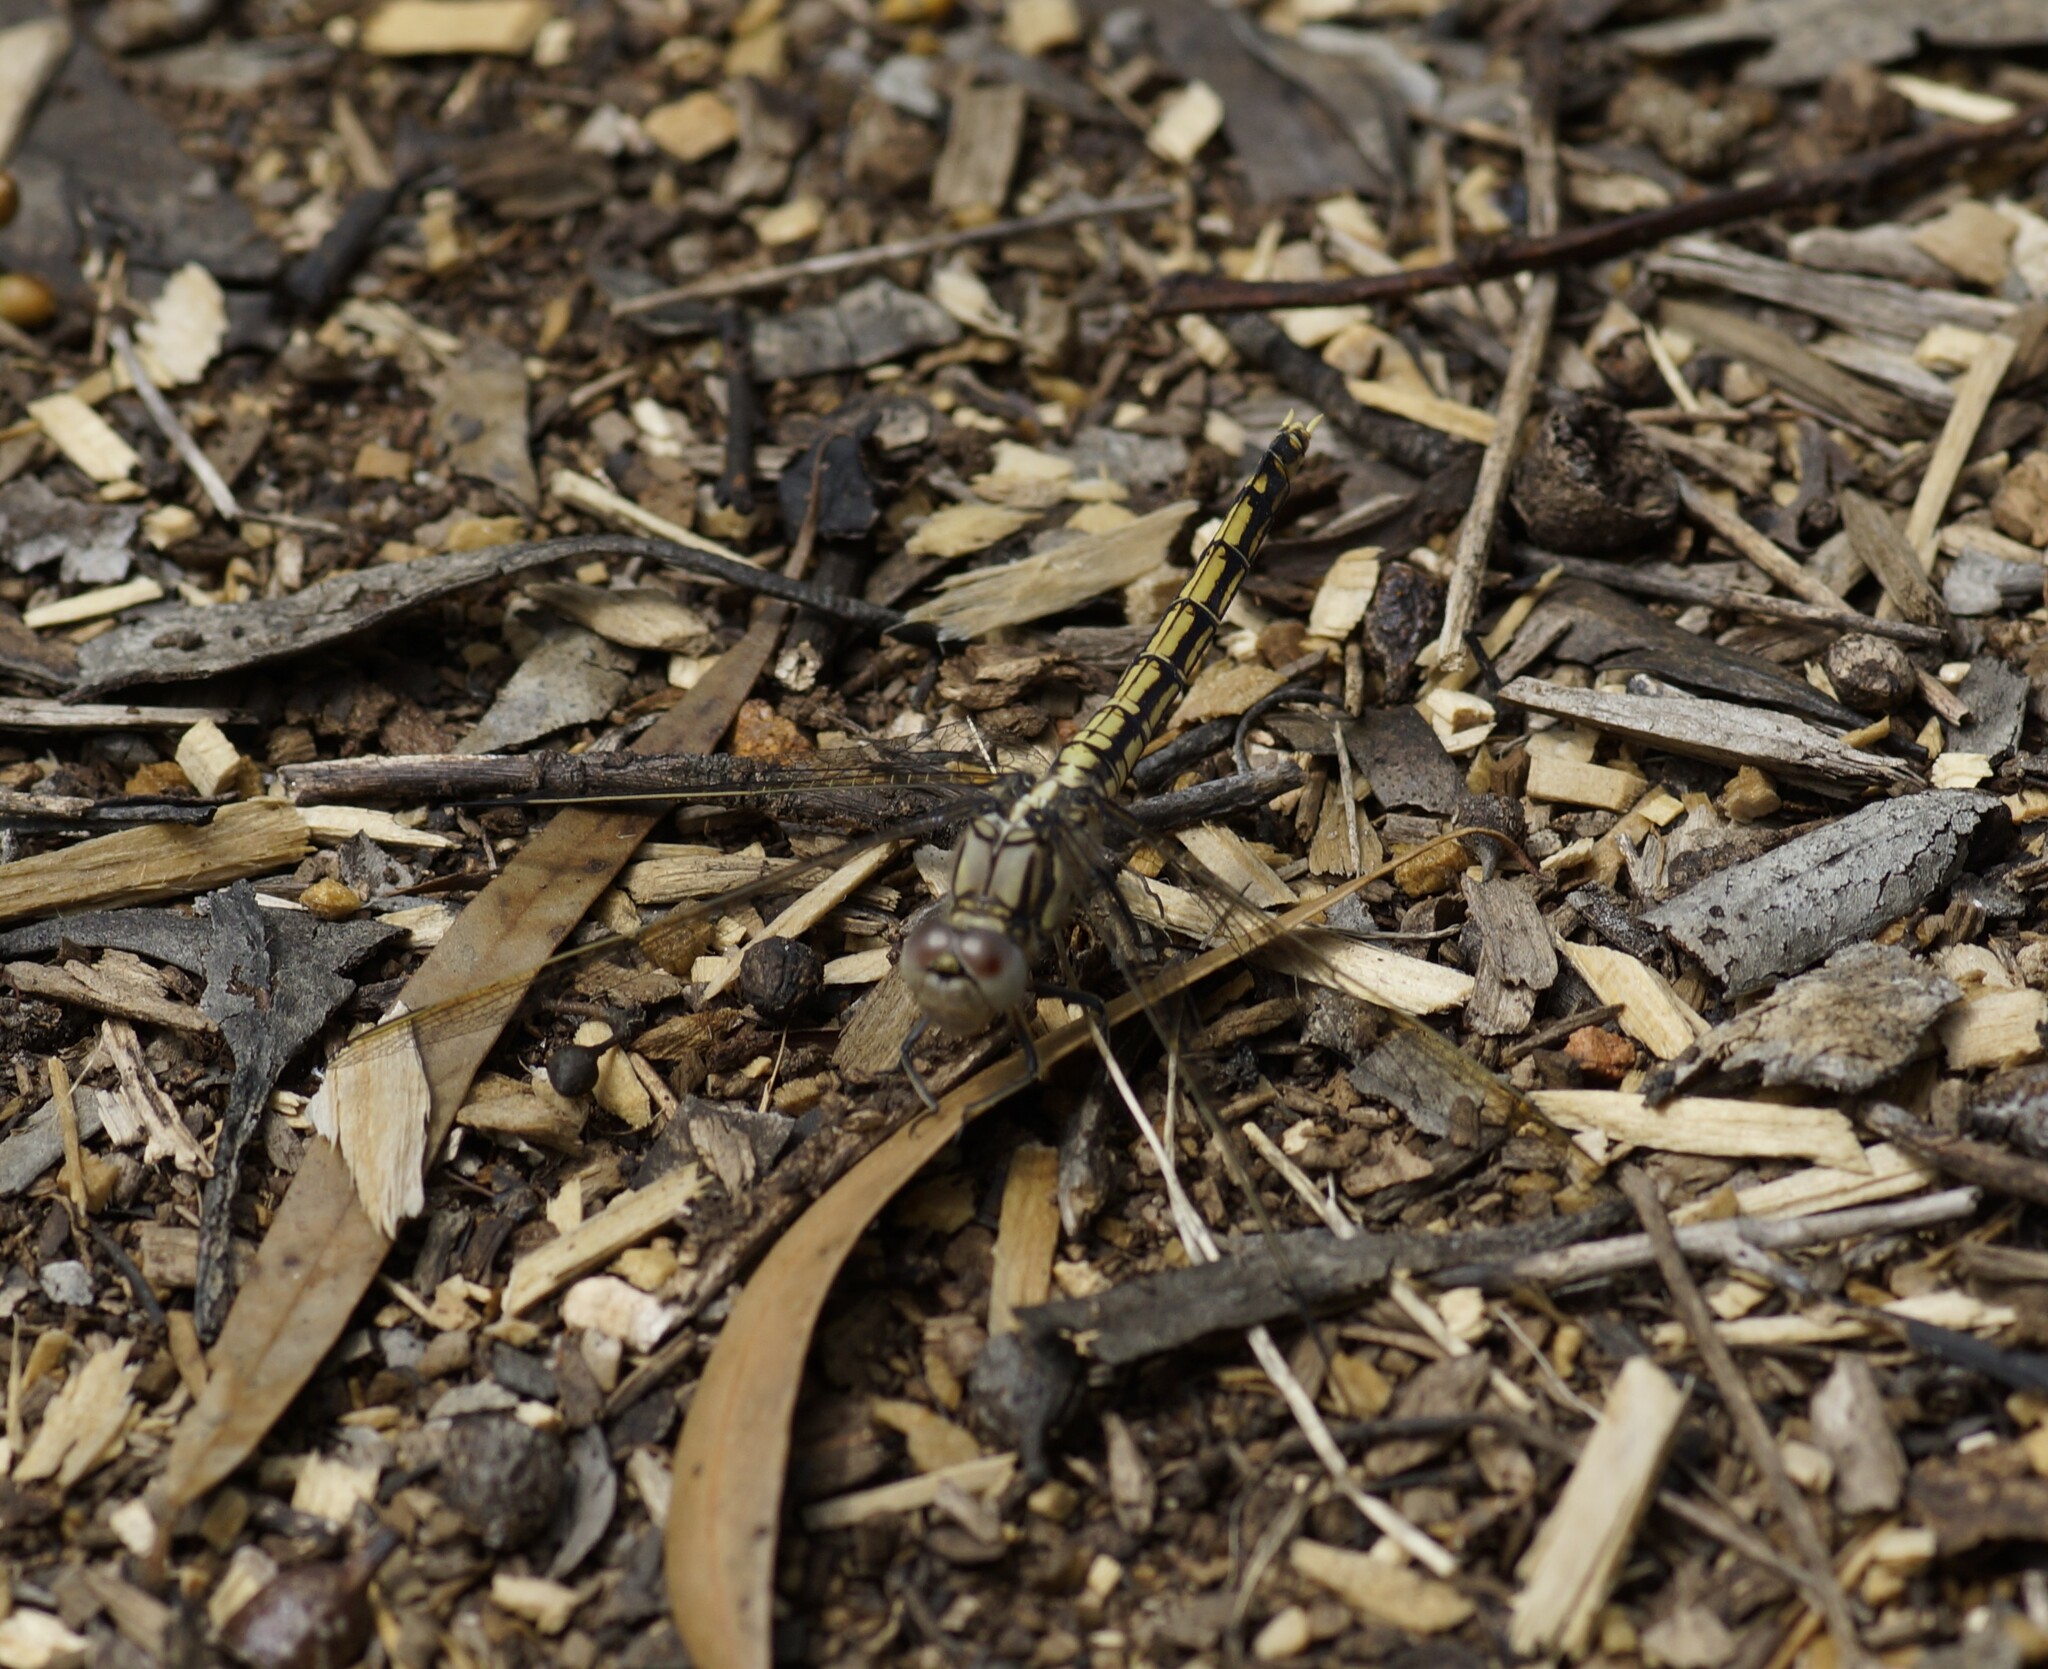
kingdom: Animalia
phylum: Arthropoda
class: Insecta
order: Odonata
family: Libellulidae
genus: Orthetrum
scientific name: Orthetrum caledonicum
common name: Blue skimmer
